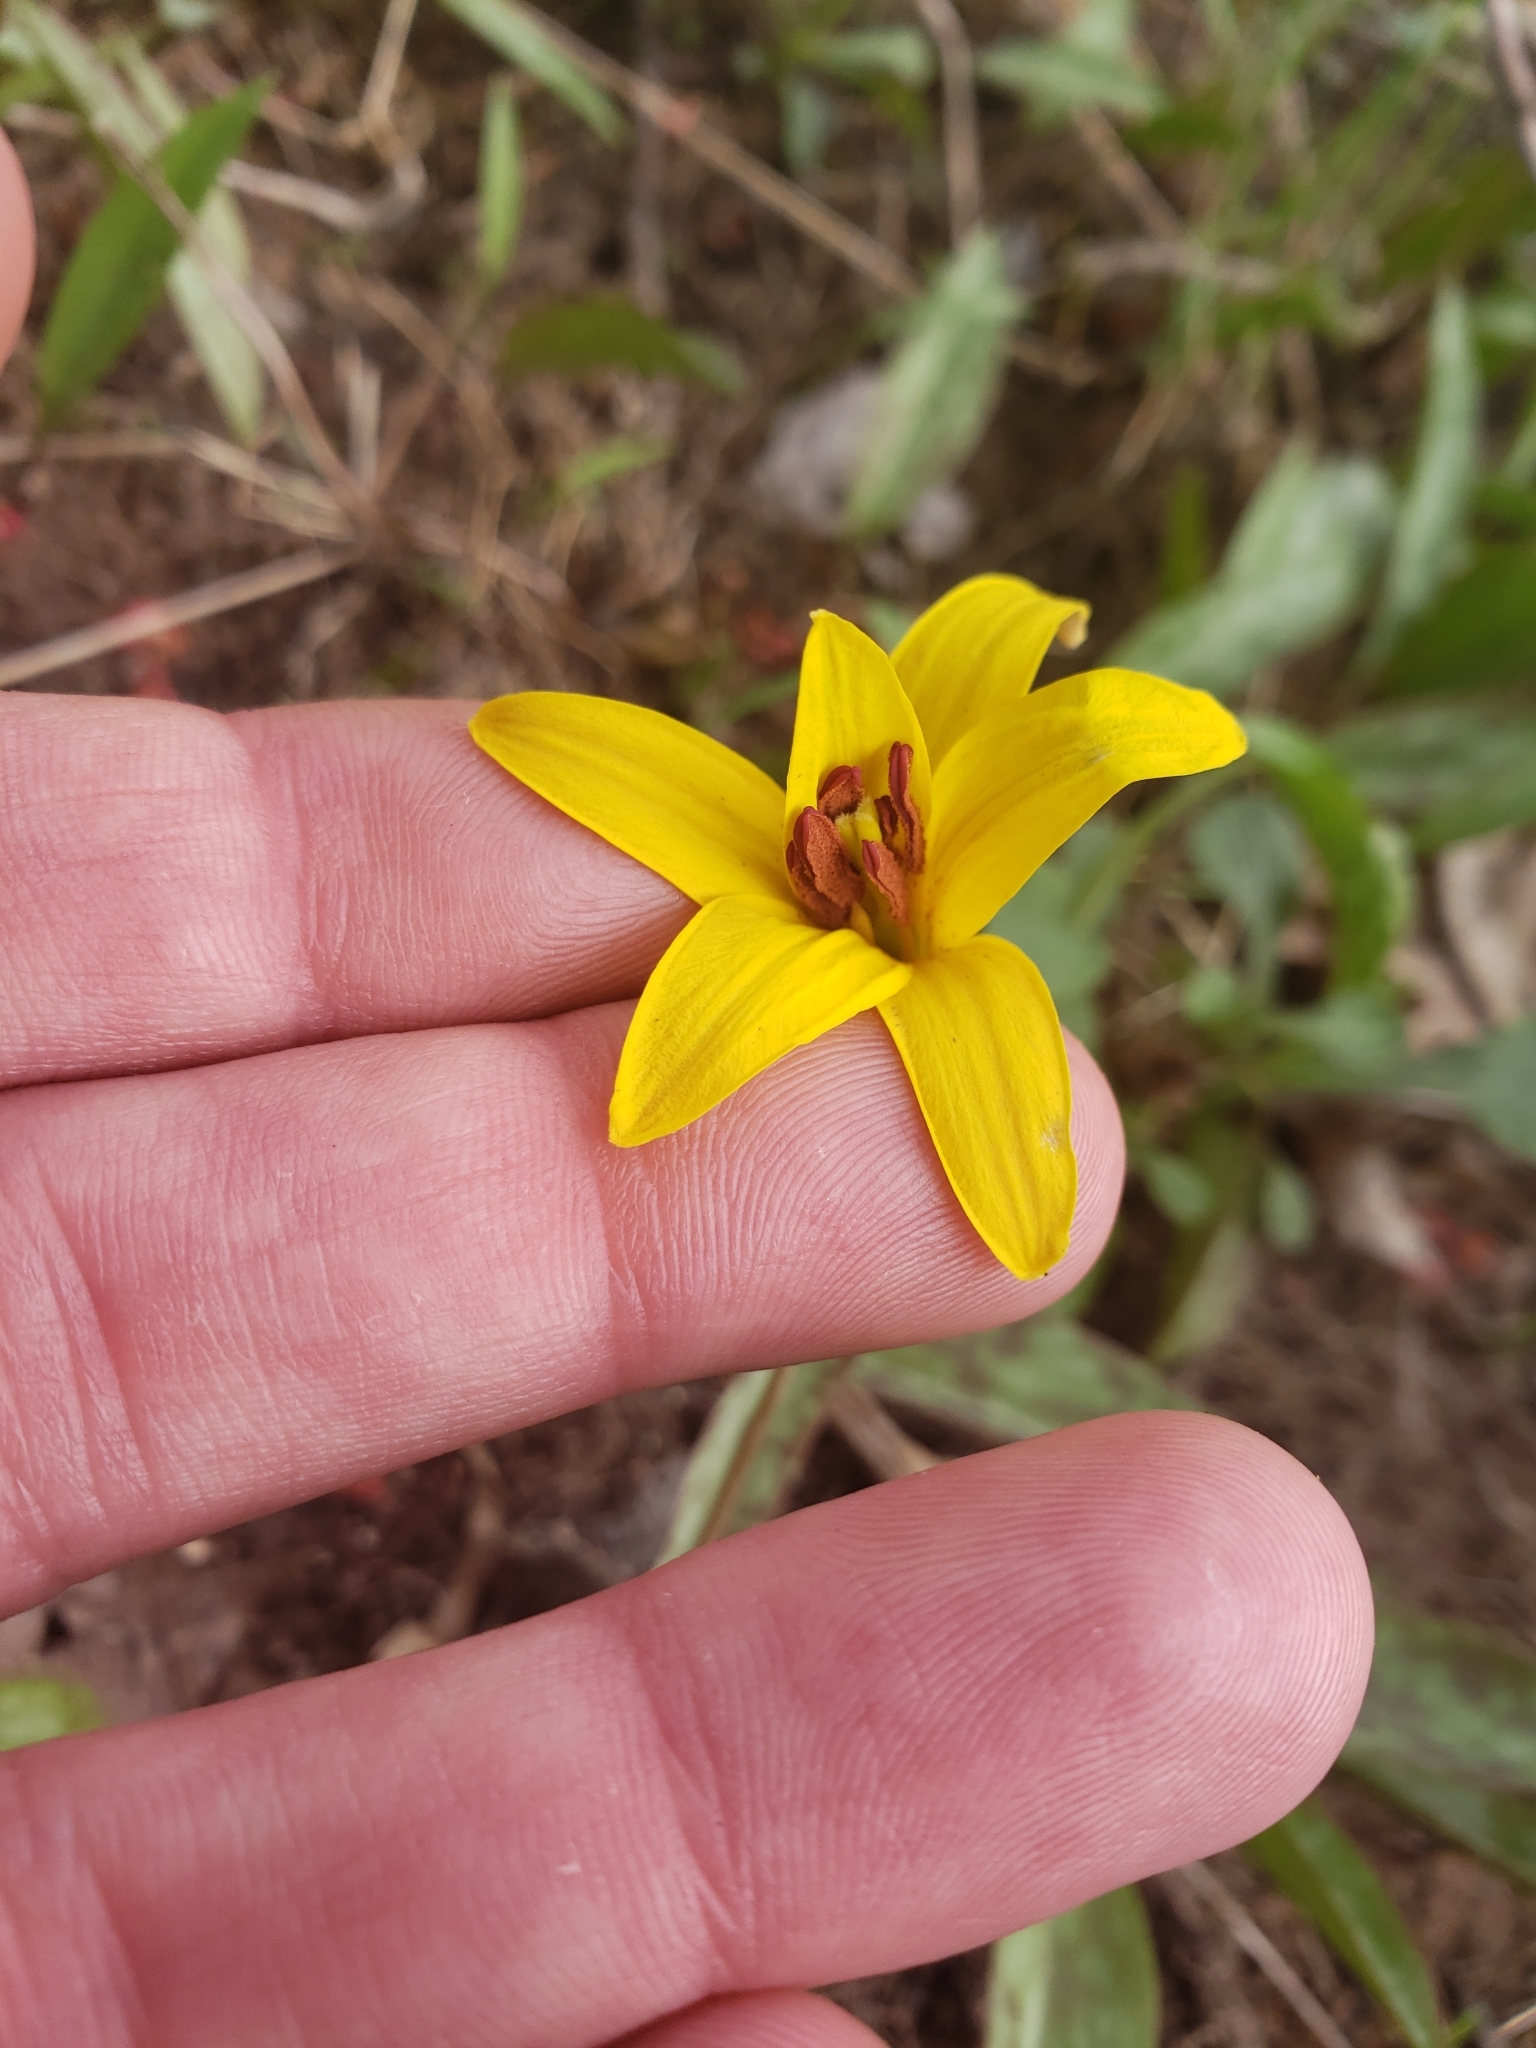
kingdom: Plantae
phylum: Tracheophyta
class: Liliopsida
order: Liliales
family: Liliaceae
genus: Erythronium
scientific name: Erythronium americanum
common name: Yellow adder's-tongue
